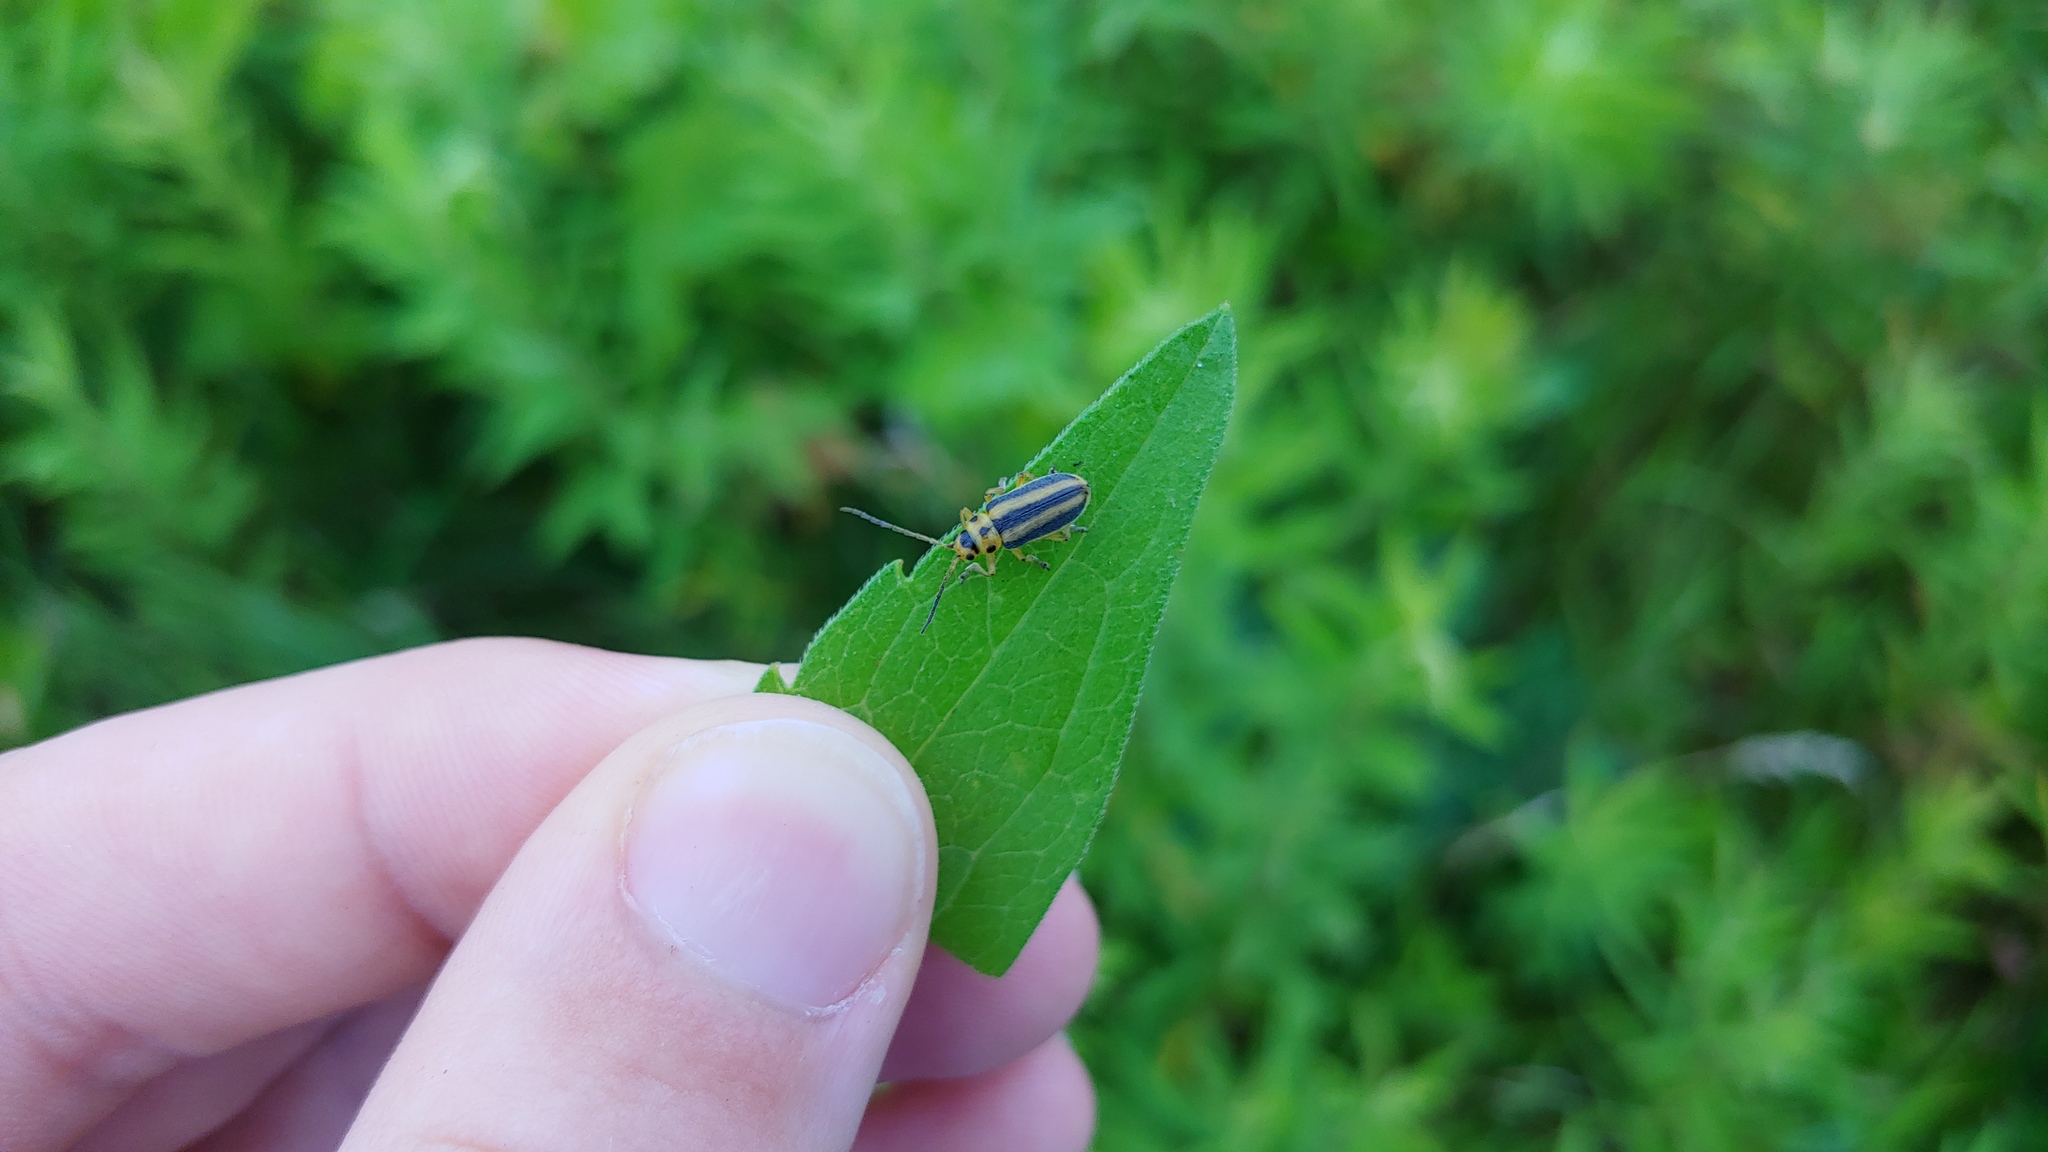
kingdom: Animalia
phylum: Arthropoda
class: Insecta
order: Coleoptera
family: Chrysomelidae
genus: Trirhabda
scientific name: Trirhabda canadensis
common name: Goldenrod leaf beetle
